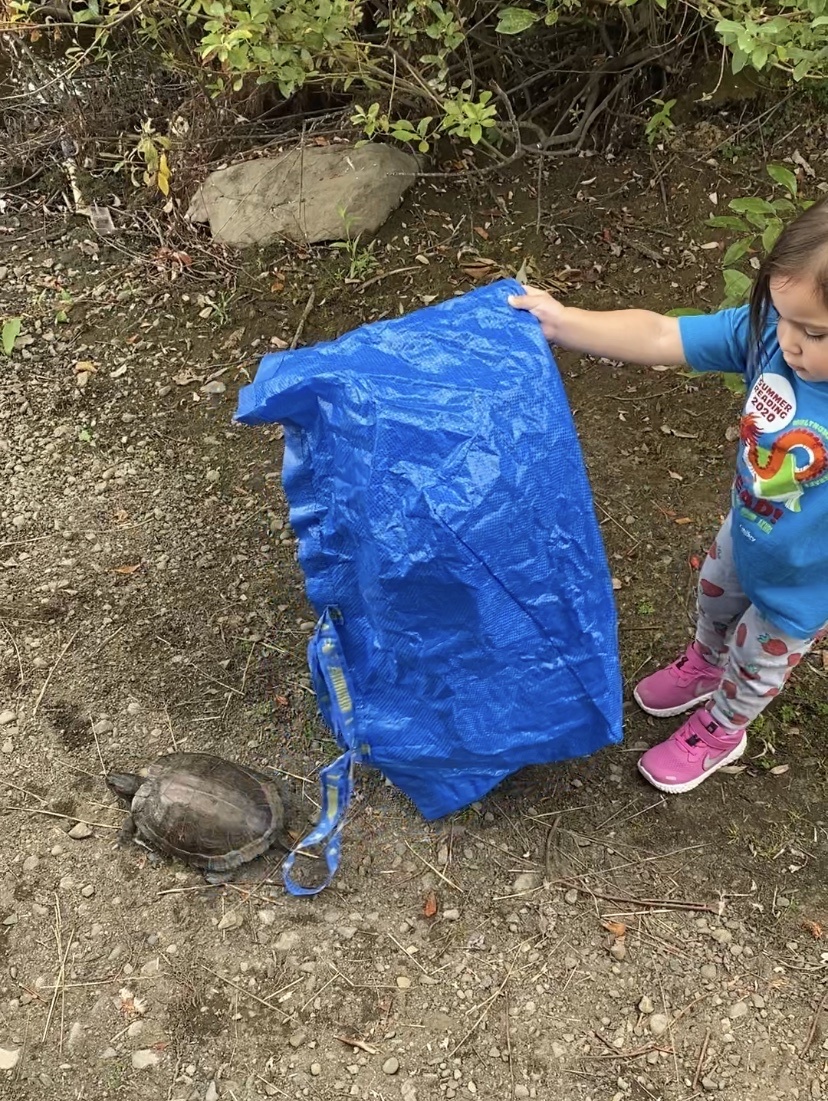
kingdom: Animalia
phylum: Chordata
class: Testudines
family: Emydidae
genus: Trachemys
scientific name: Trachemys scripta
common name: Slider
